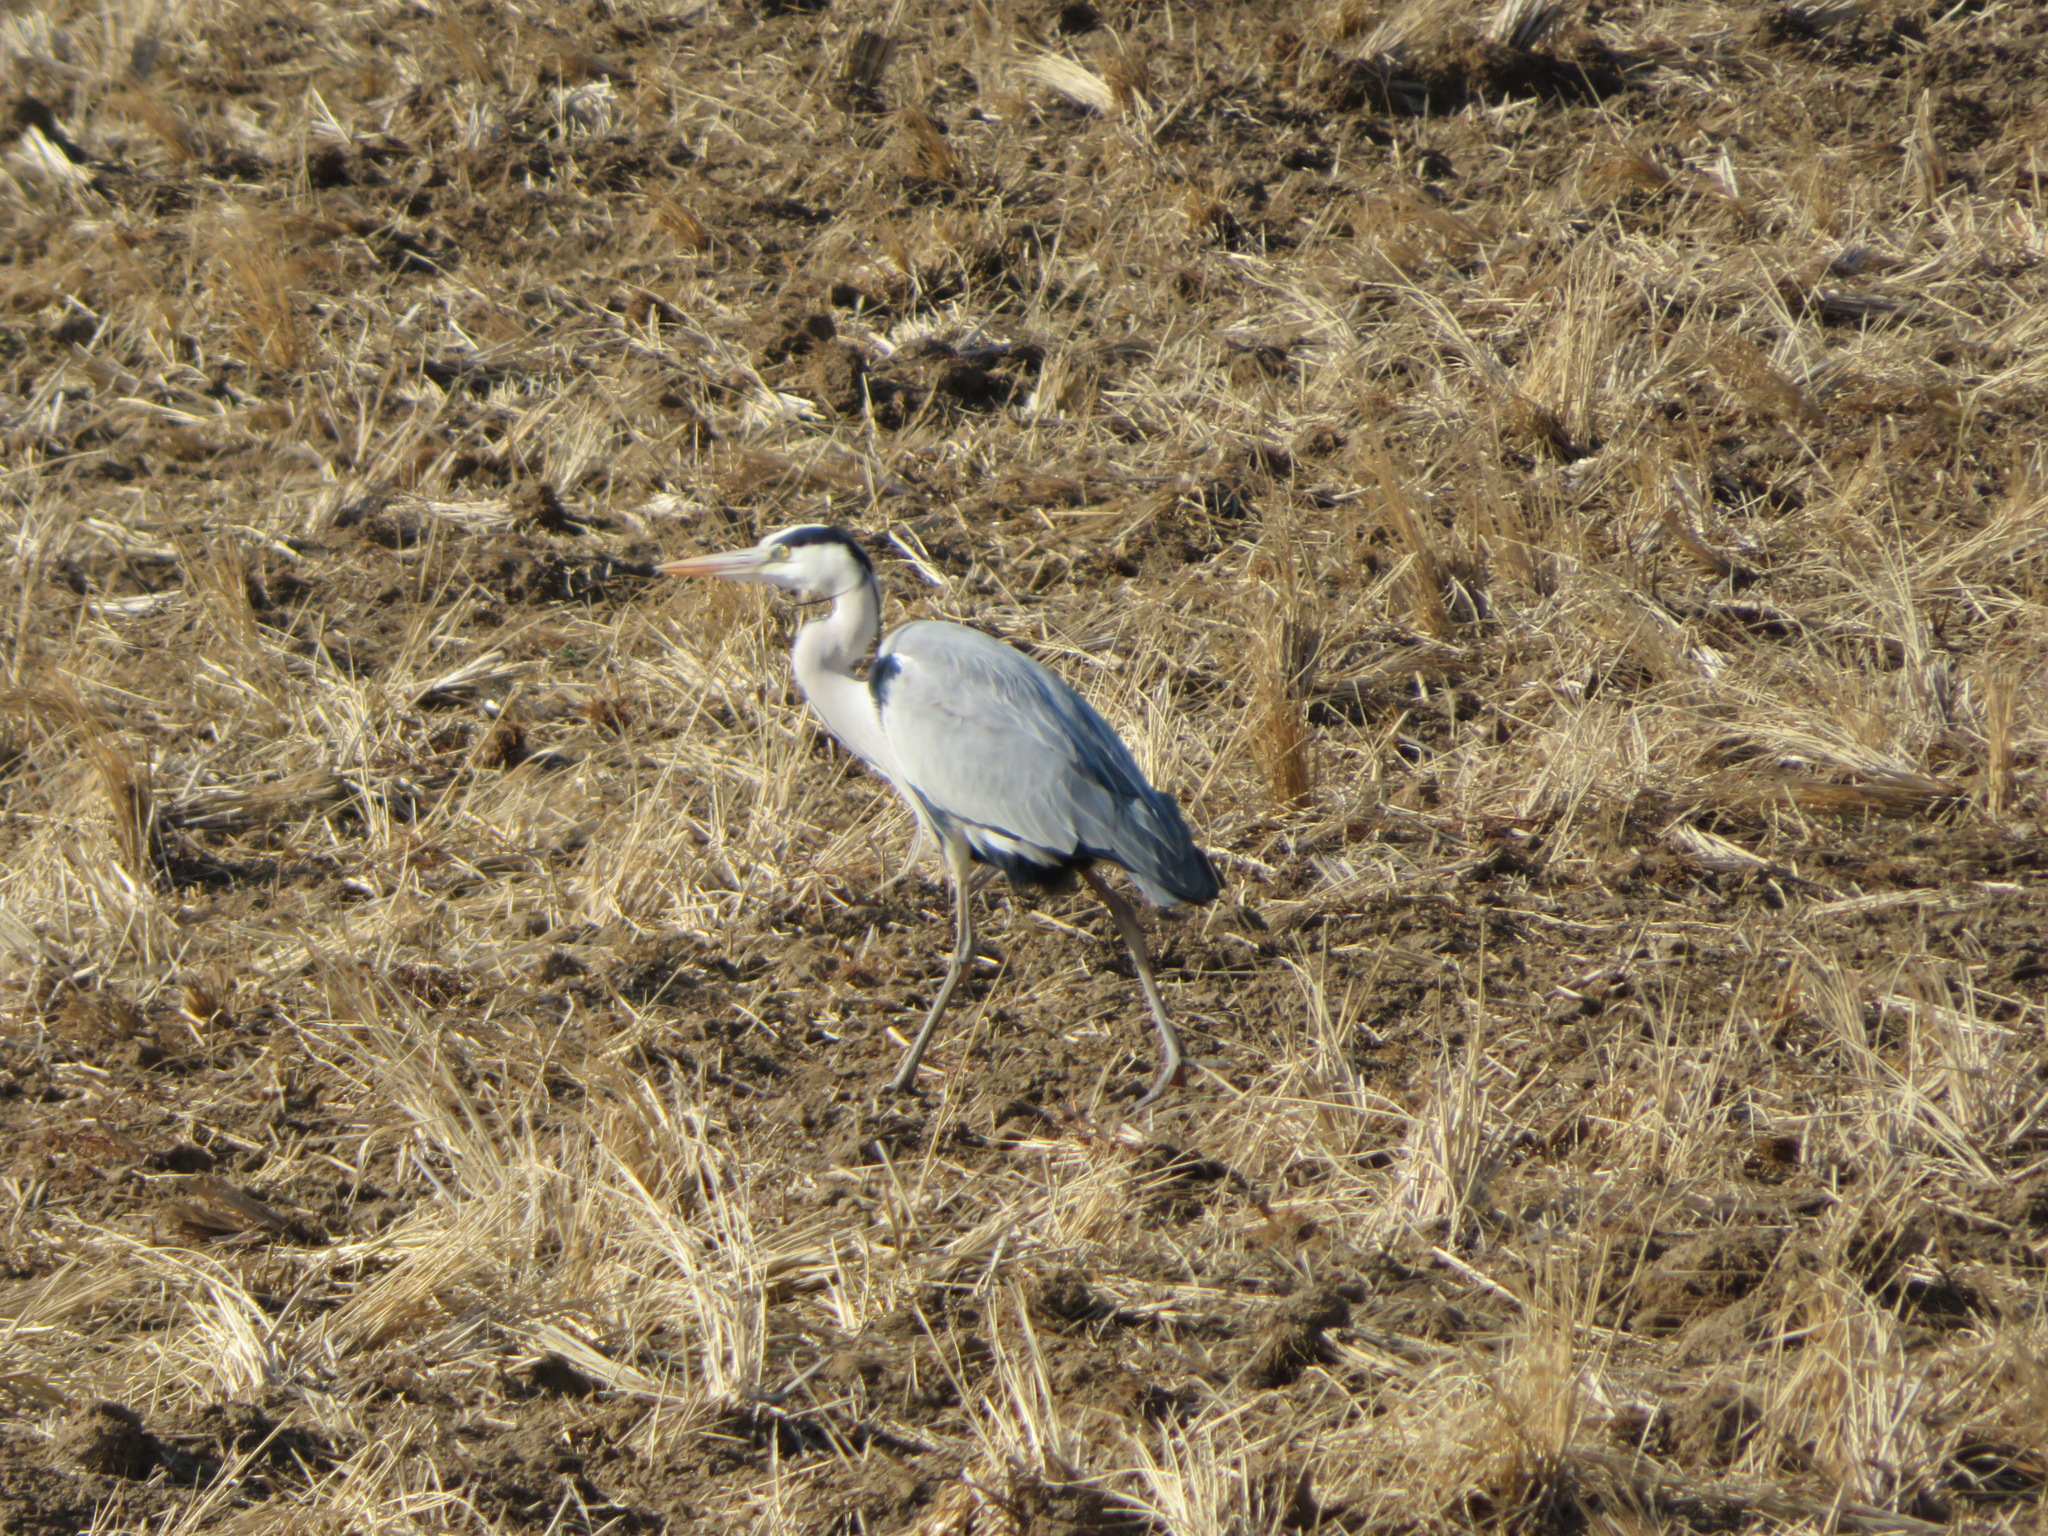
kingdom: Animalia
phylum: Chordata
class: Aves
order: Pelecaniformes
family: Ardeidae
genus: Ardea
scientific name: Ardea cinerea
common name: Grey heron
